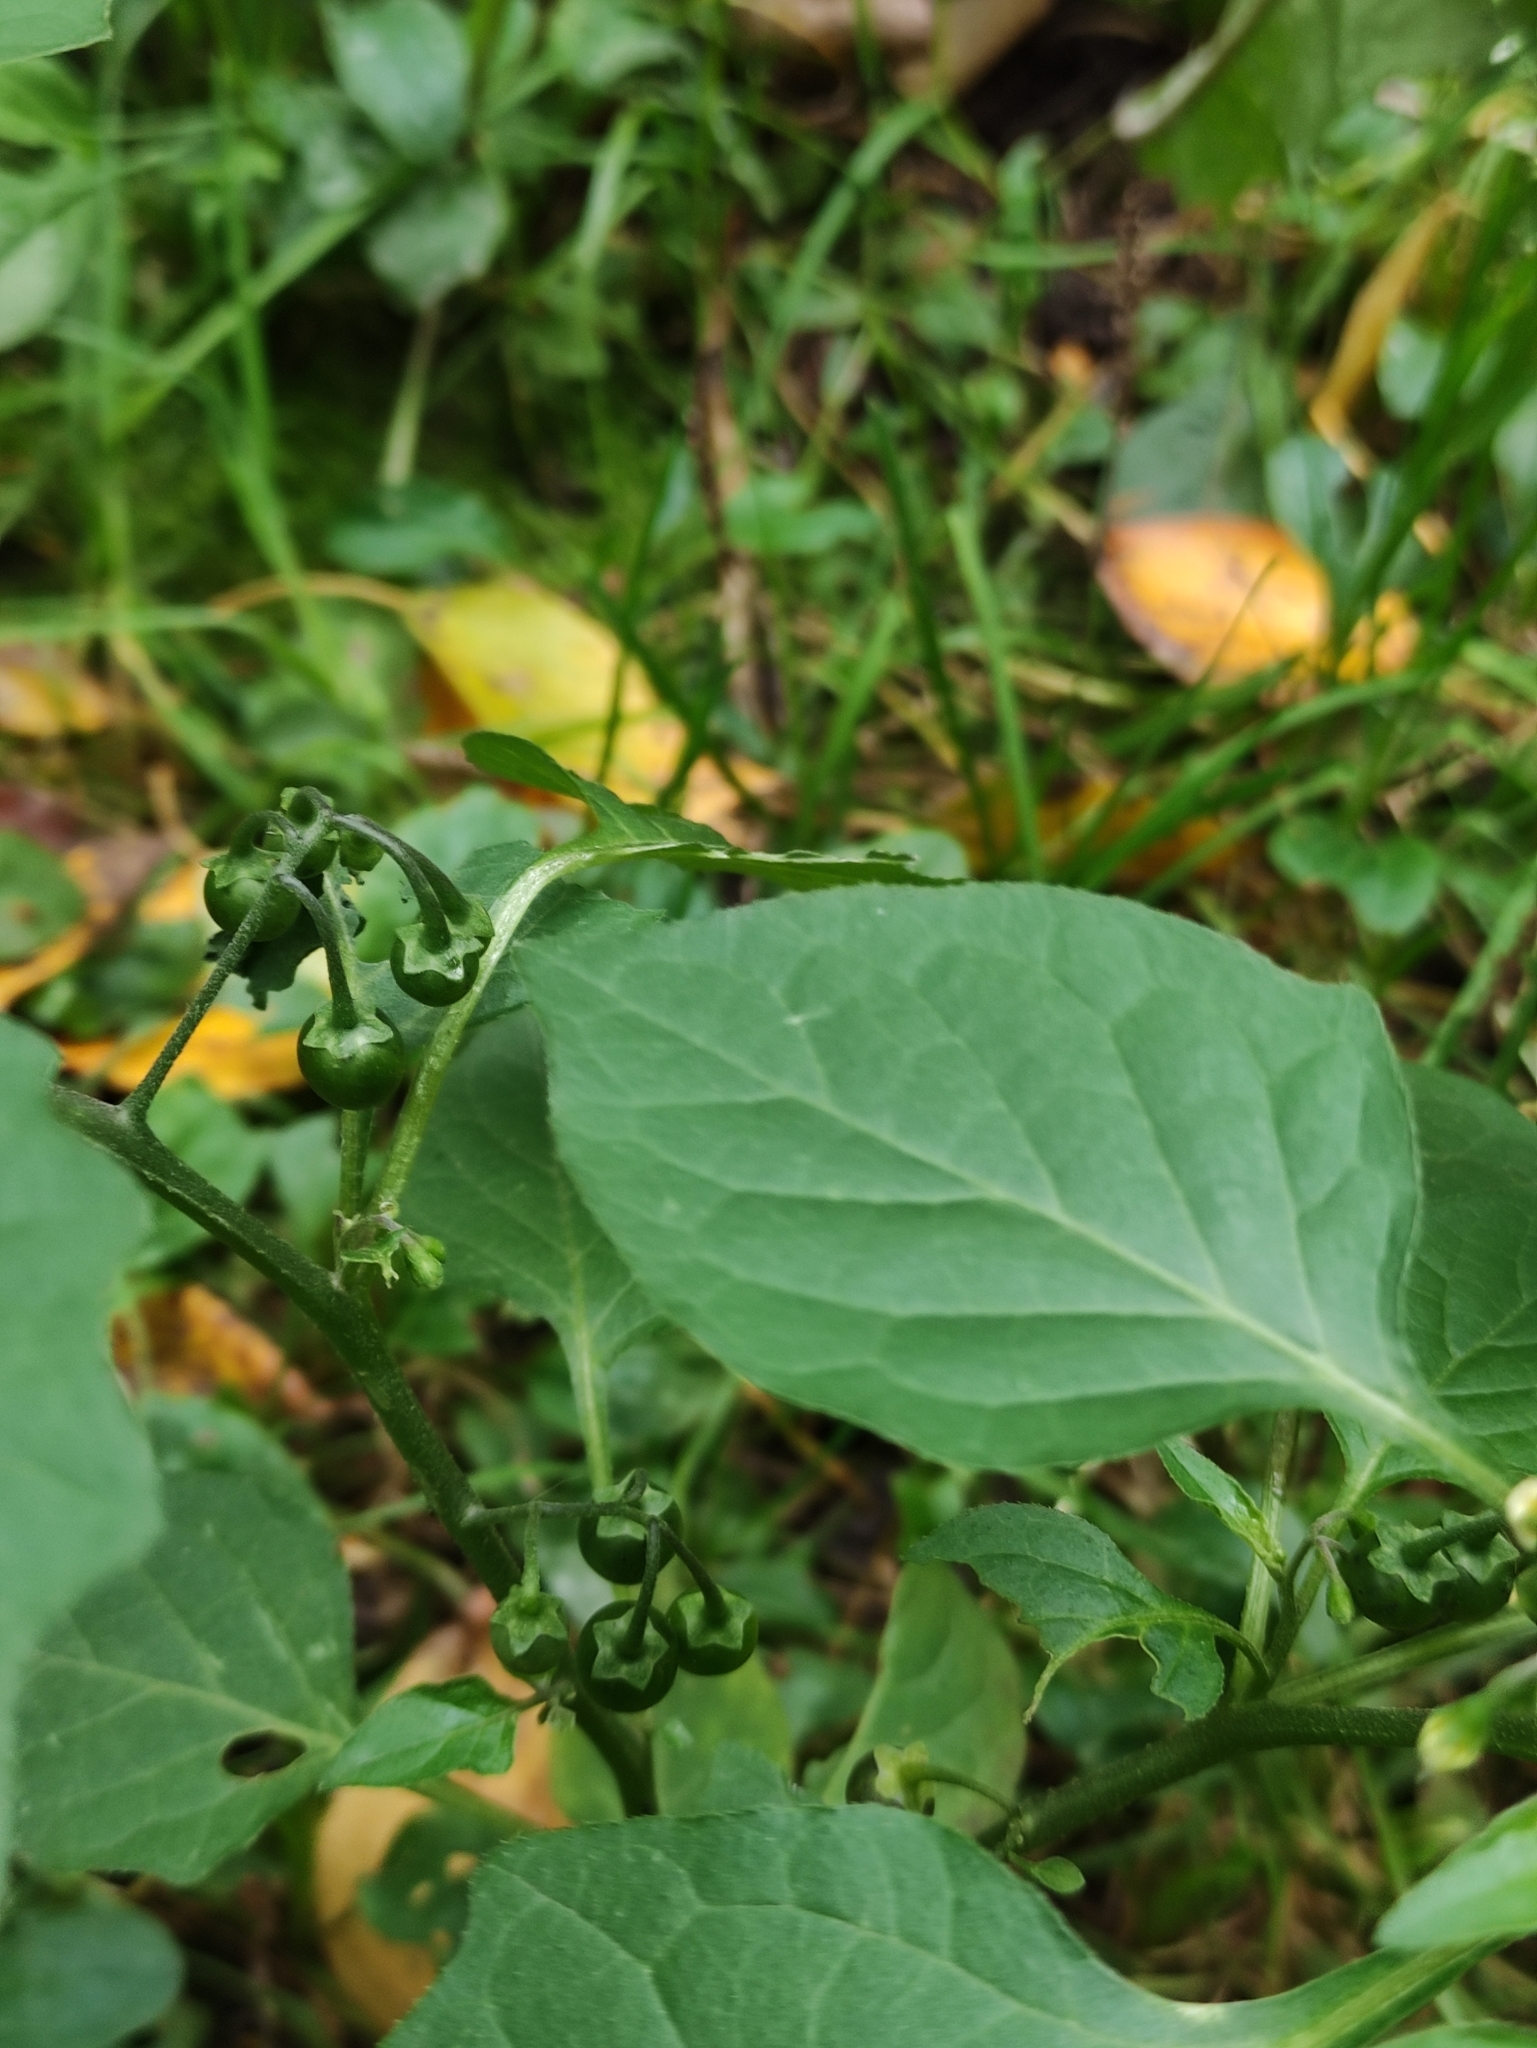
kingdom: Plantae
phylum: Tracheophyta
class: Magnoliopsida
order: Solanales
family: Solanaceae
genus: Solanum
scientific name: Solanum nigrum
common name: Black nightshade
